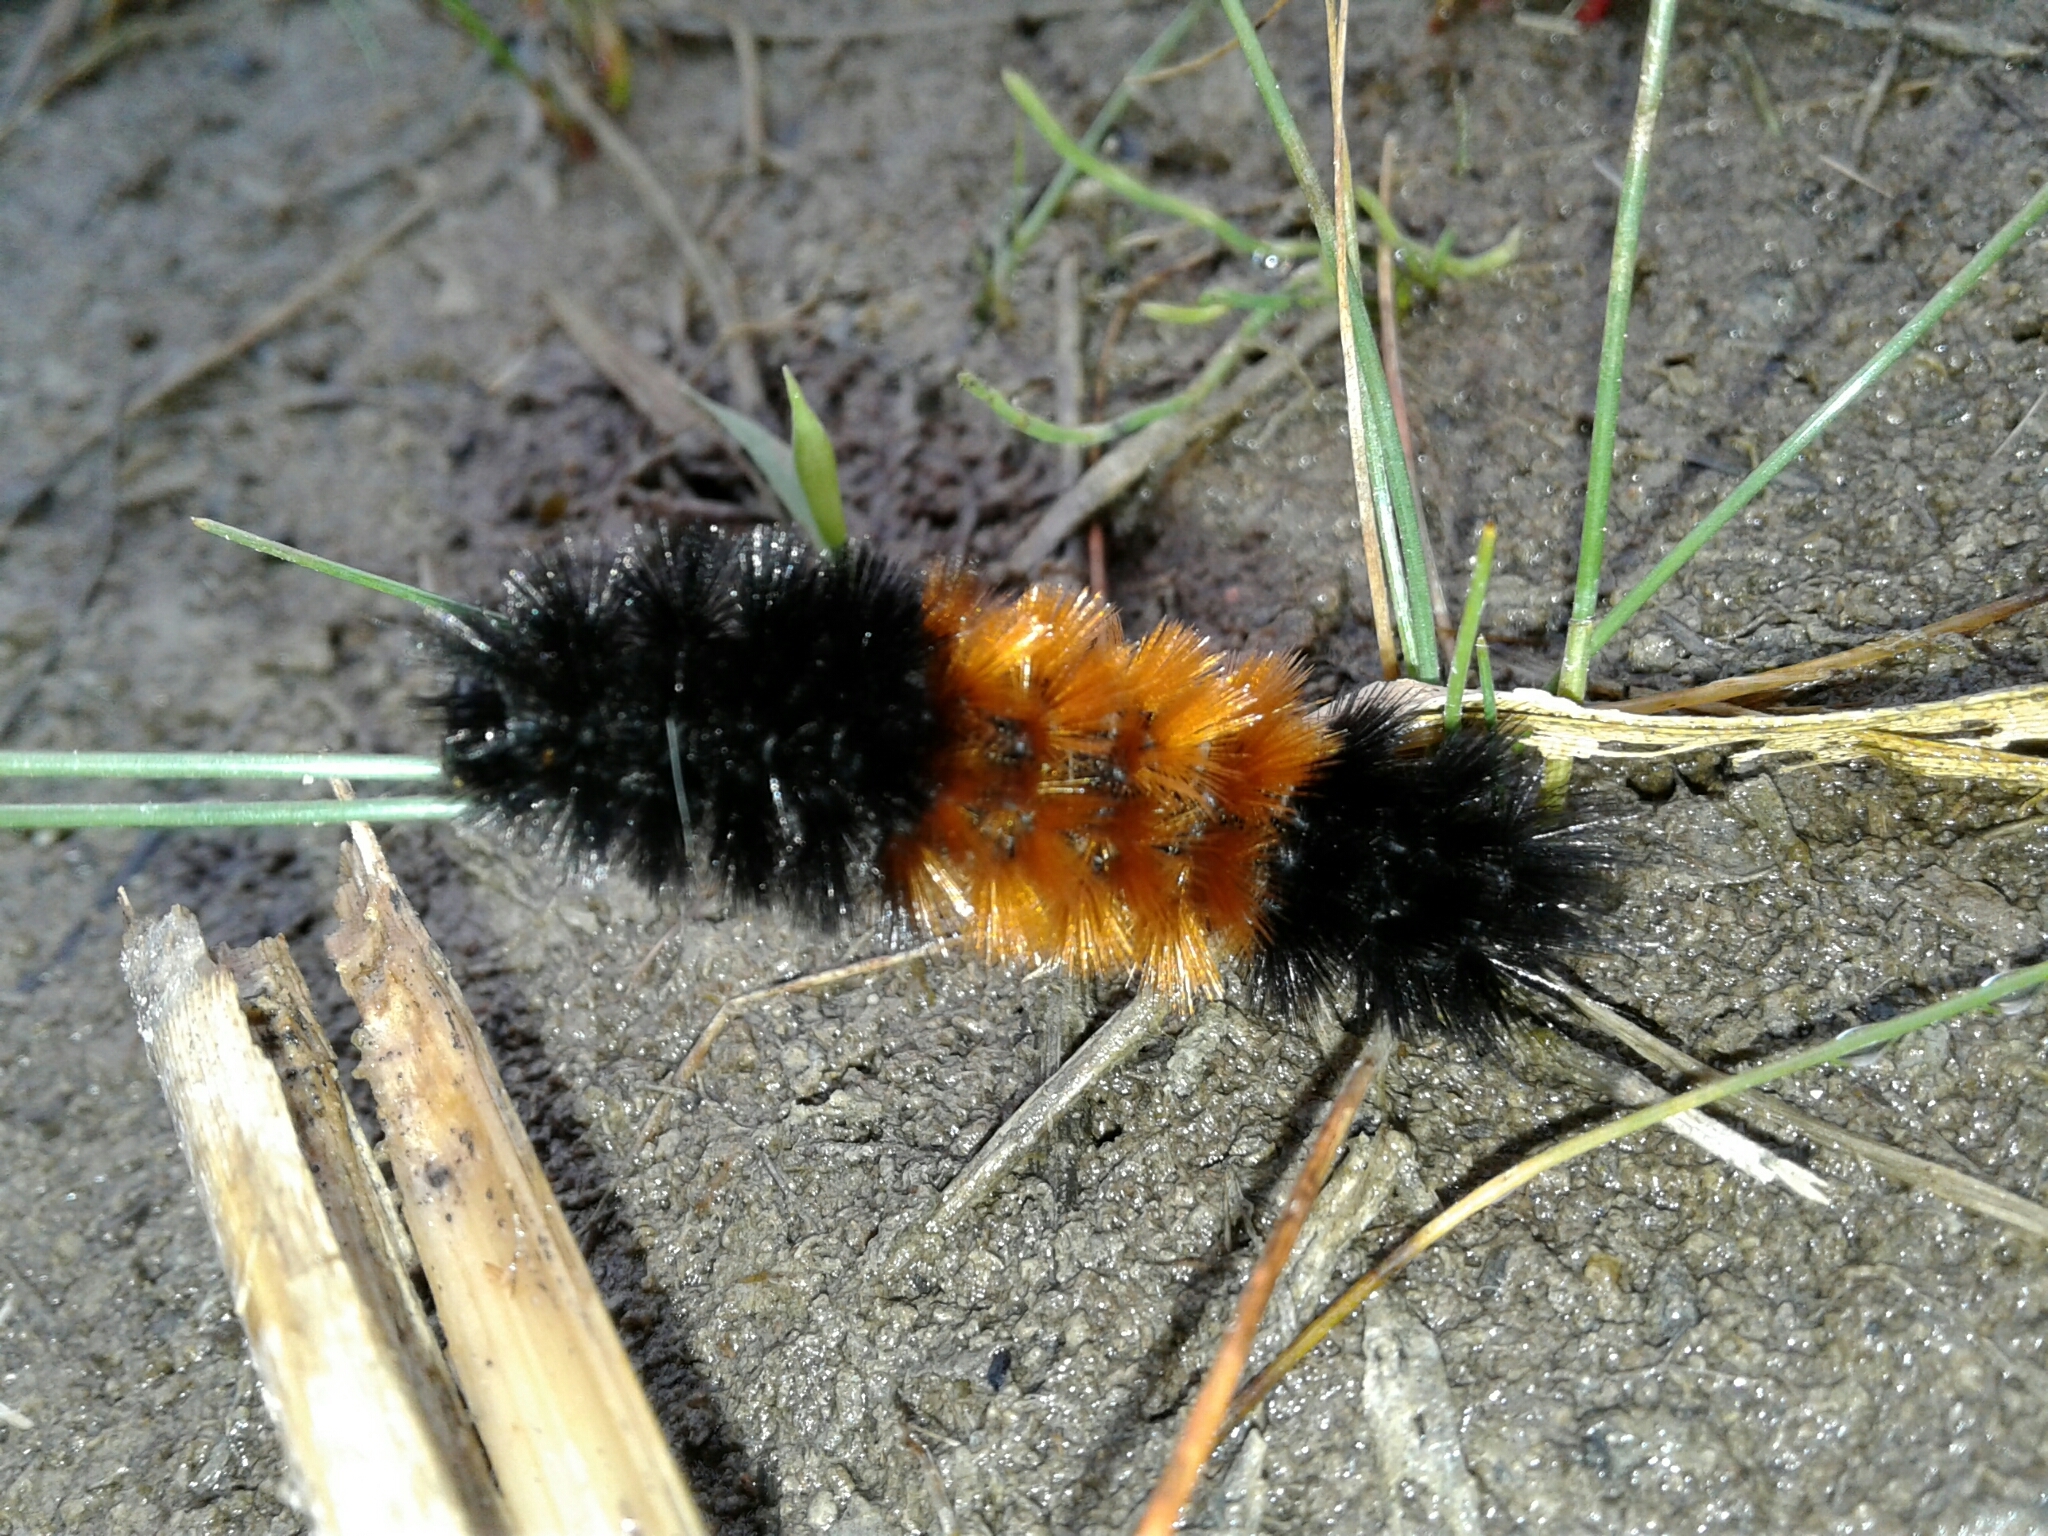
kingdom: Animalia
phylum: Arthropoda
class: Insecta
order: Lepidoptera
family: Erebidae
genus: Pyrrharctia
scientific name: Pyrrharctia isabella
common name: Isabella tiger moth
